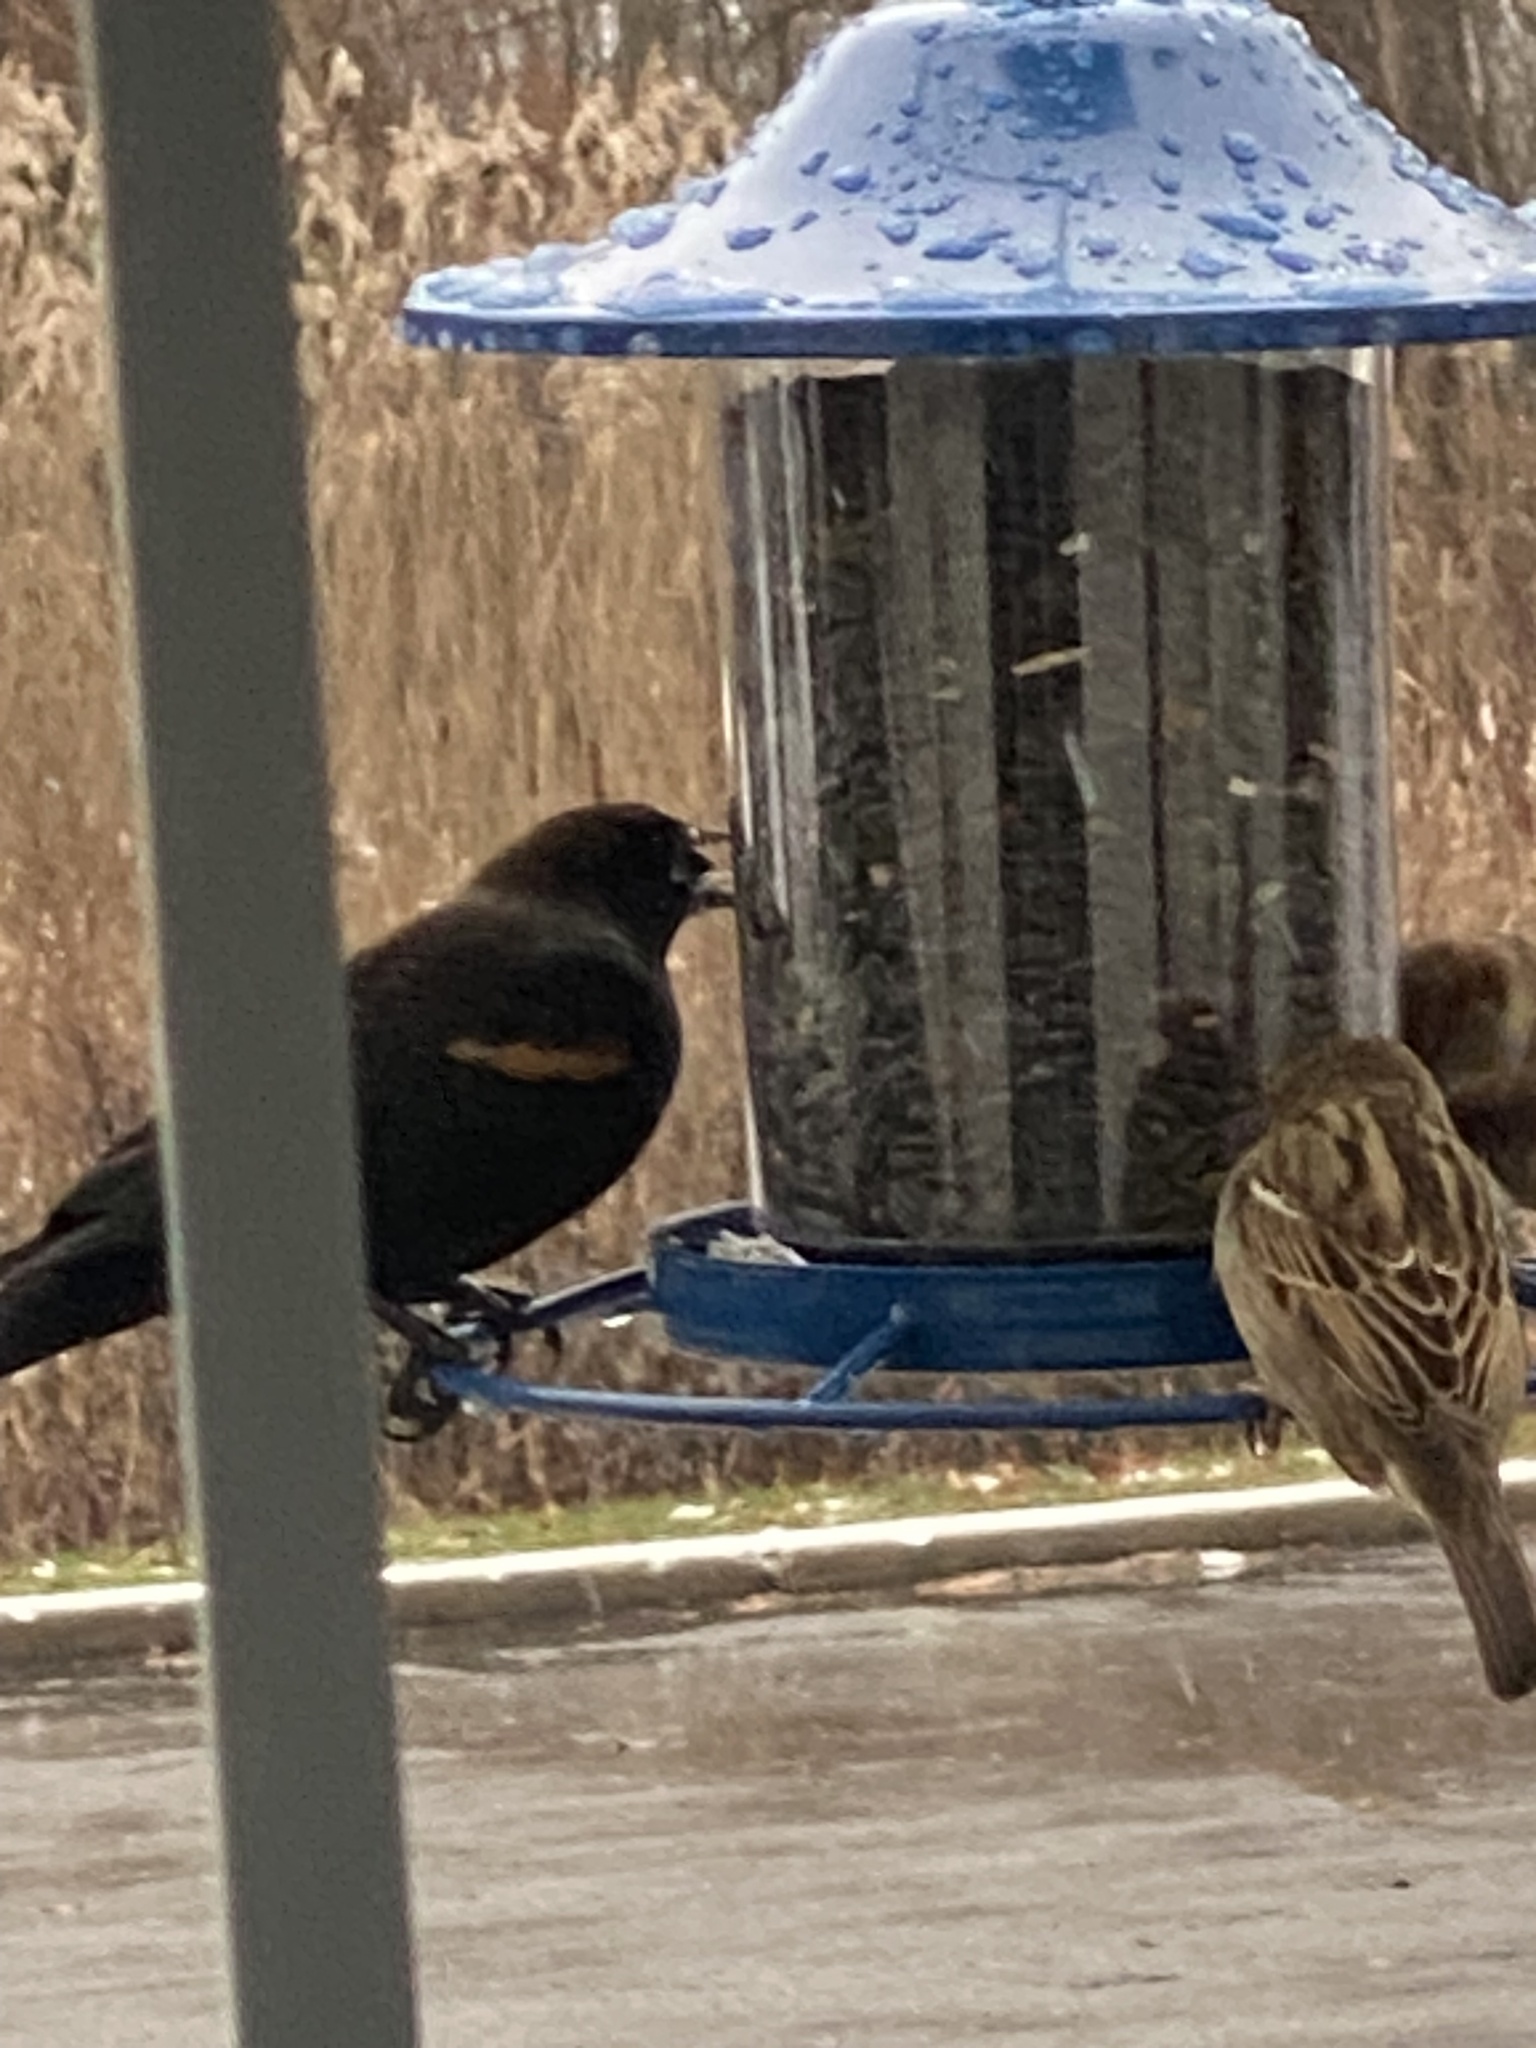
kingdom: Animalia
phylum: Chordata
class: Aves
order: Passeriformes
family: Icteridae
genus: Agelaius
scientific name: Agelaius phoeniceus
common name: Red-winged blackbird
